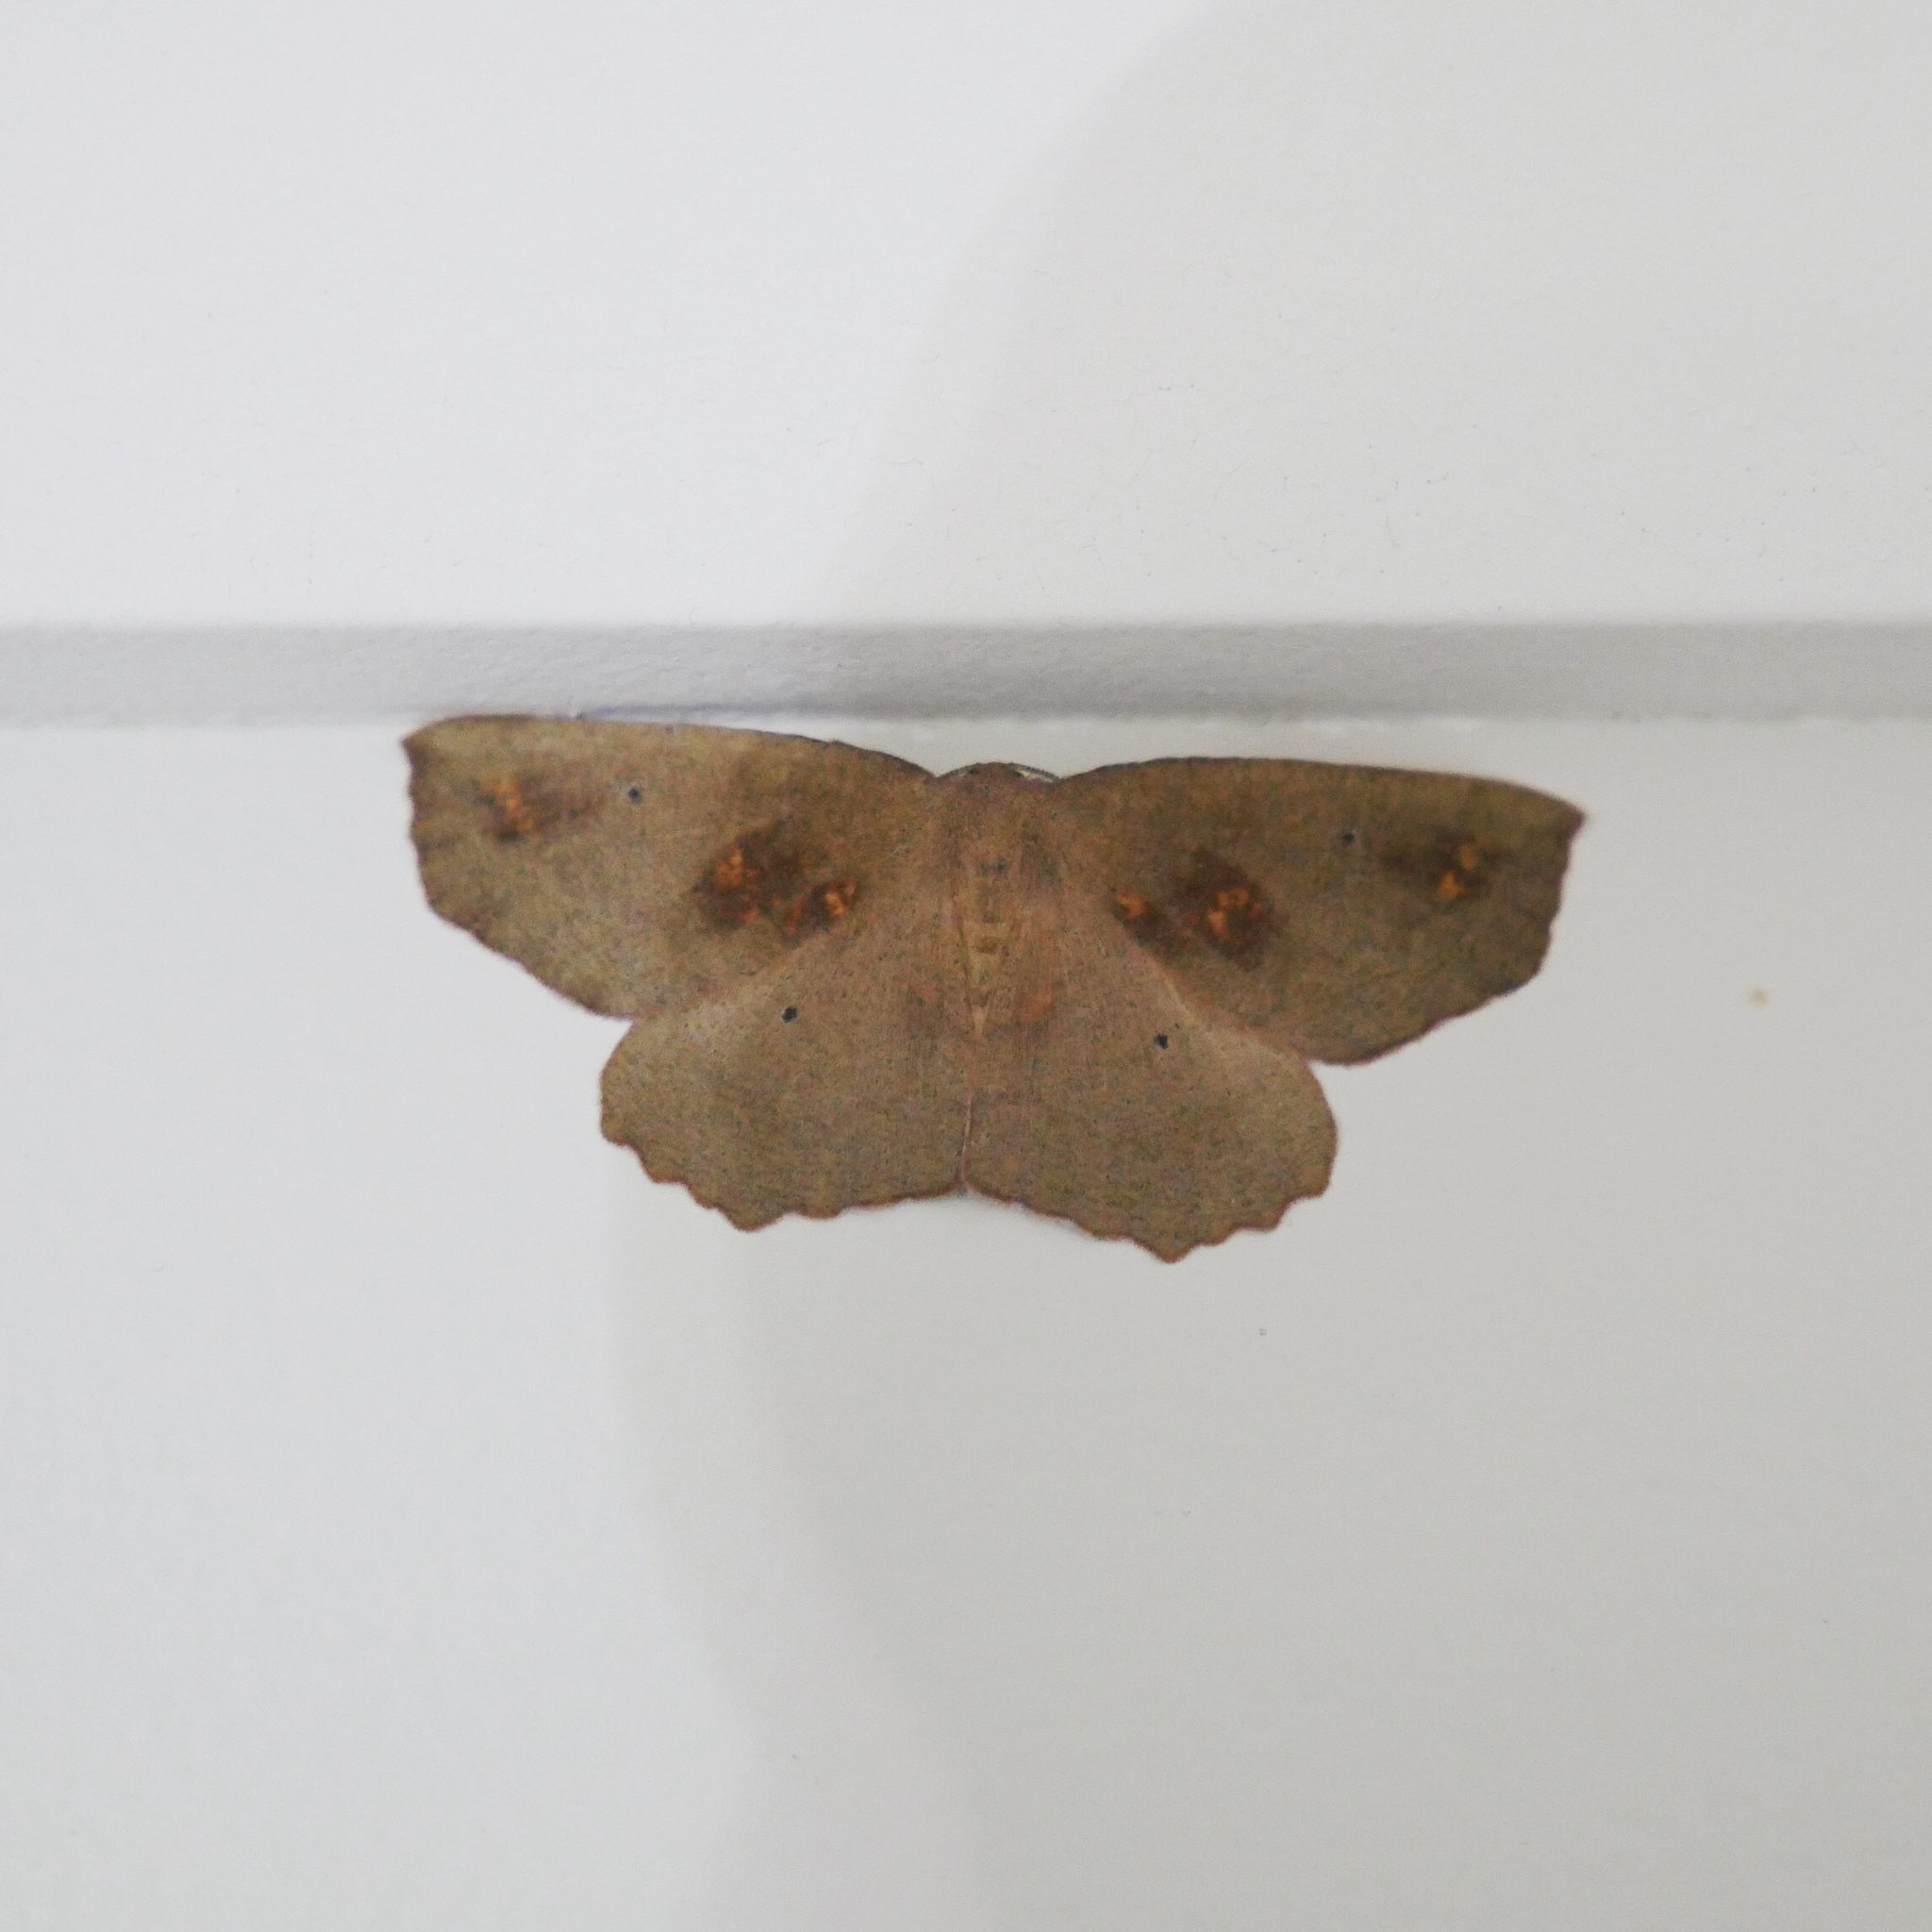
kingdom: Animalia
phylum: Arthropoda
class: Insecta
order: Lepidoptera
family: Geometridae
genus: Xyridacma
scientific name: Xyridacma ustaria
